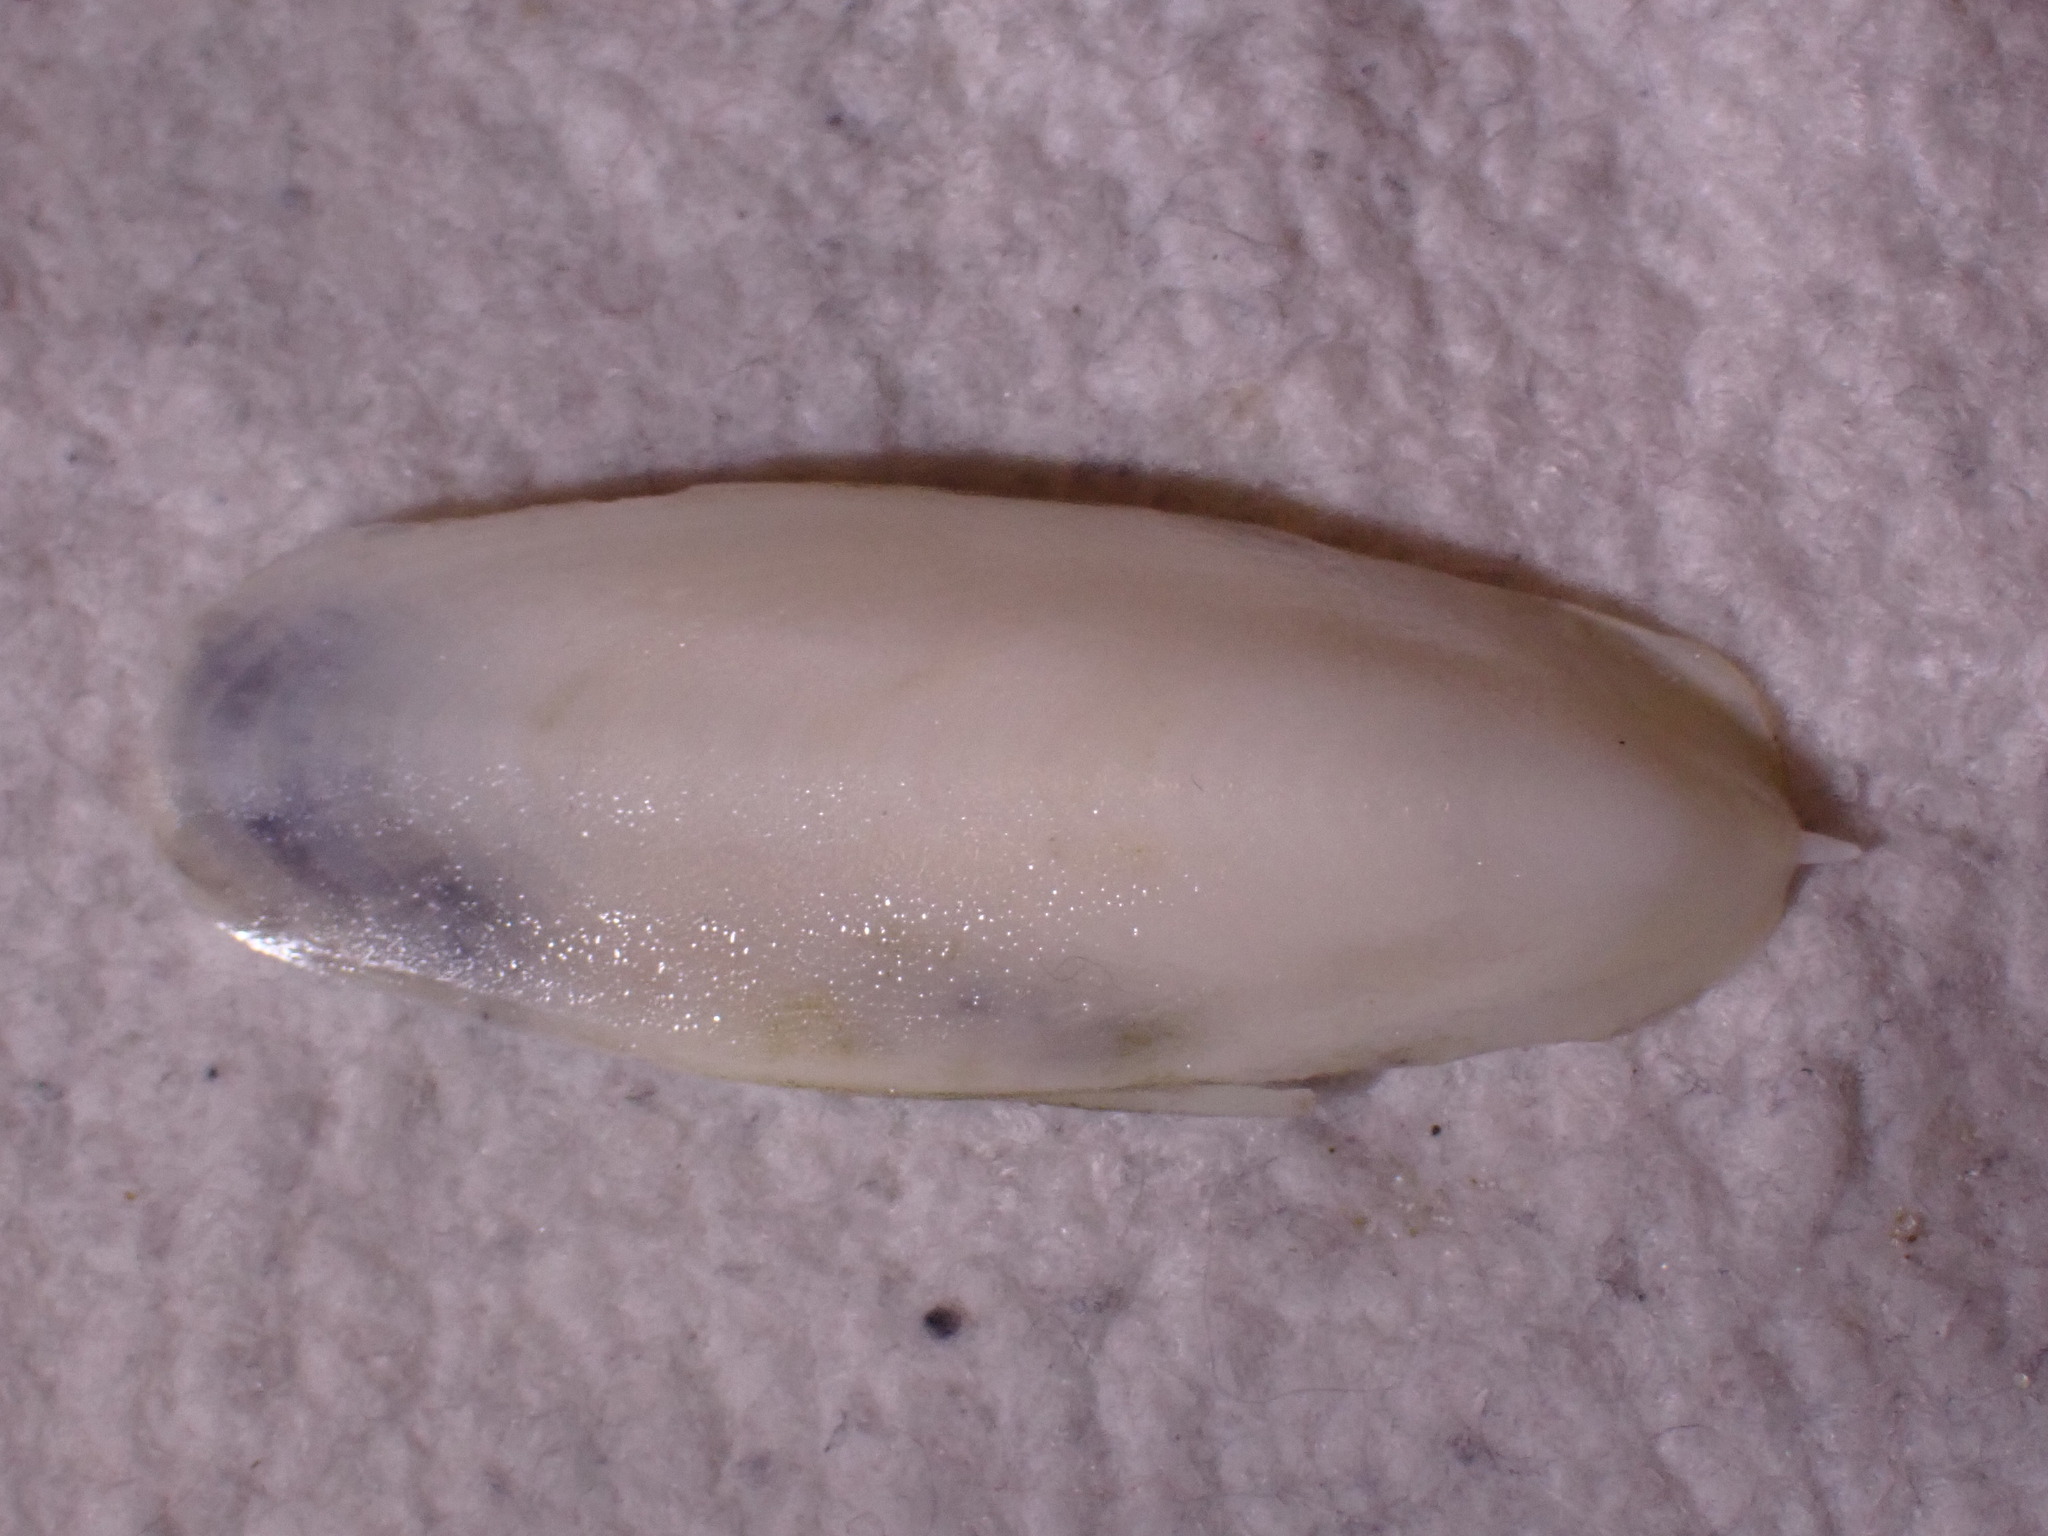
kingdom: Animalia
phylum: Mollusca
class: Cephalopoda
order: Sepiida
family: Sepiidae
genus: Sepia
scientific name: Sepia officinalis
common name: Common cuttlefish
